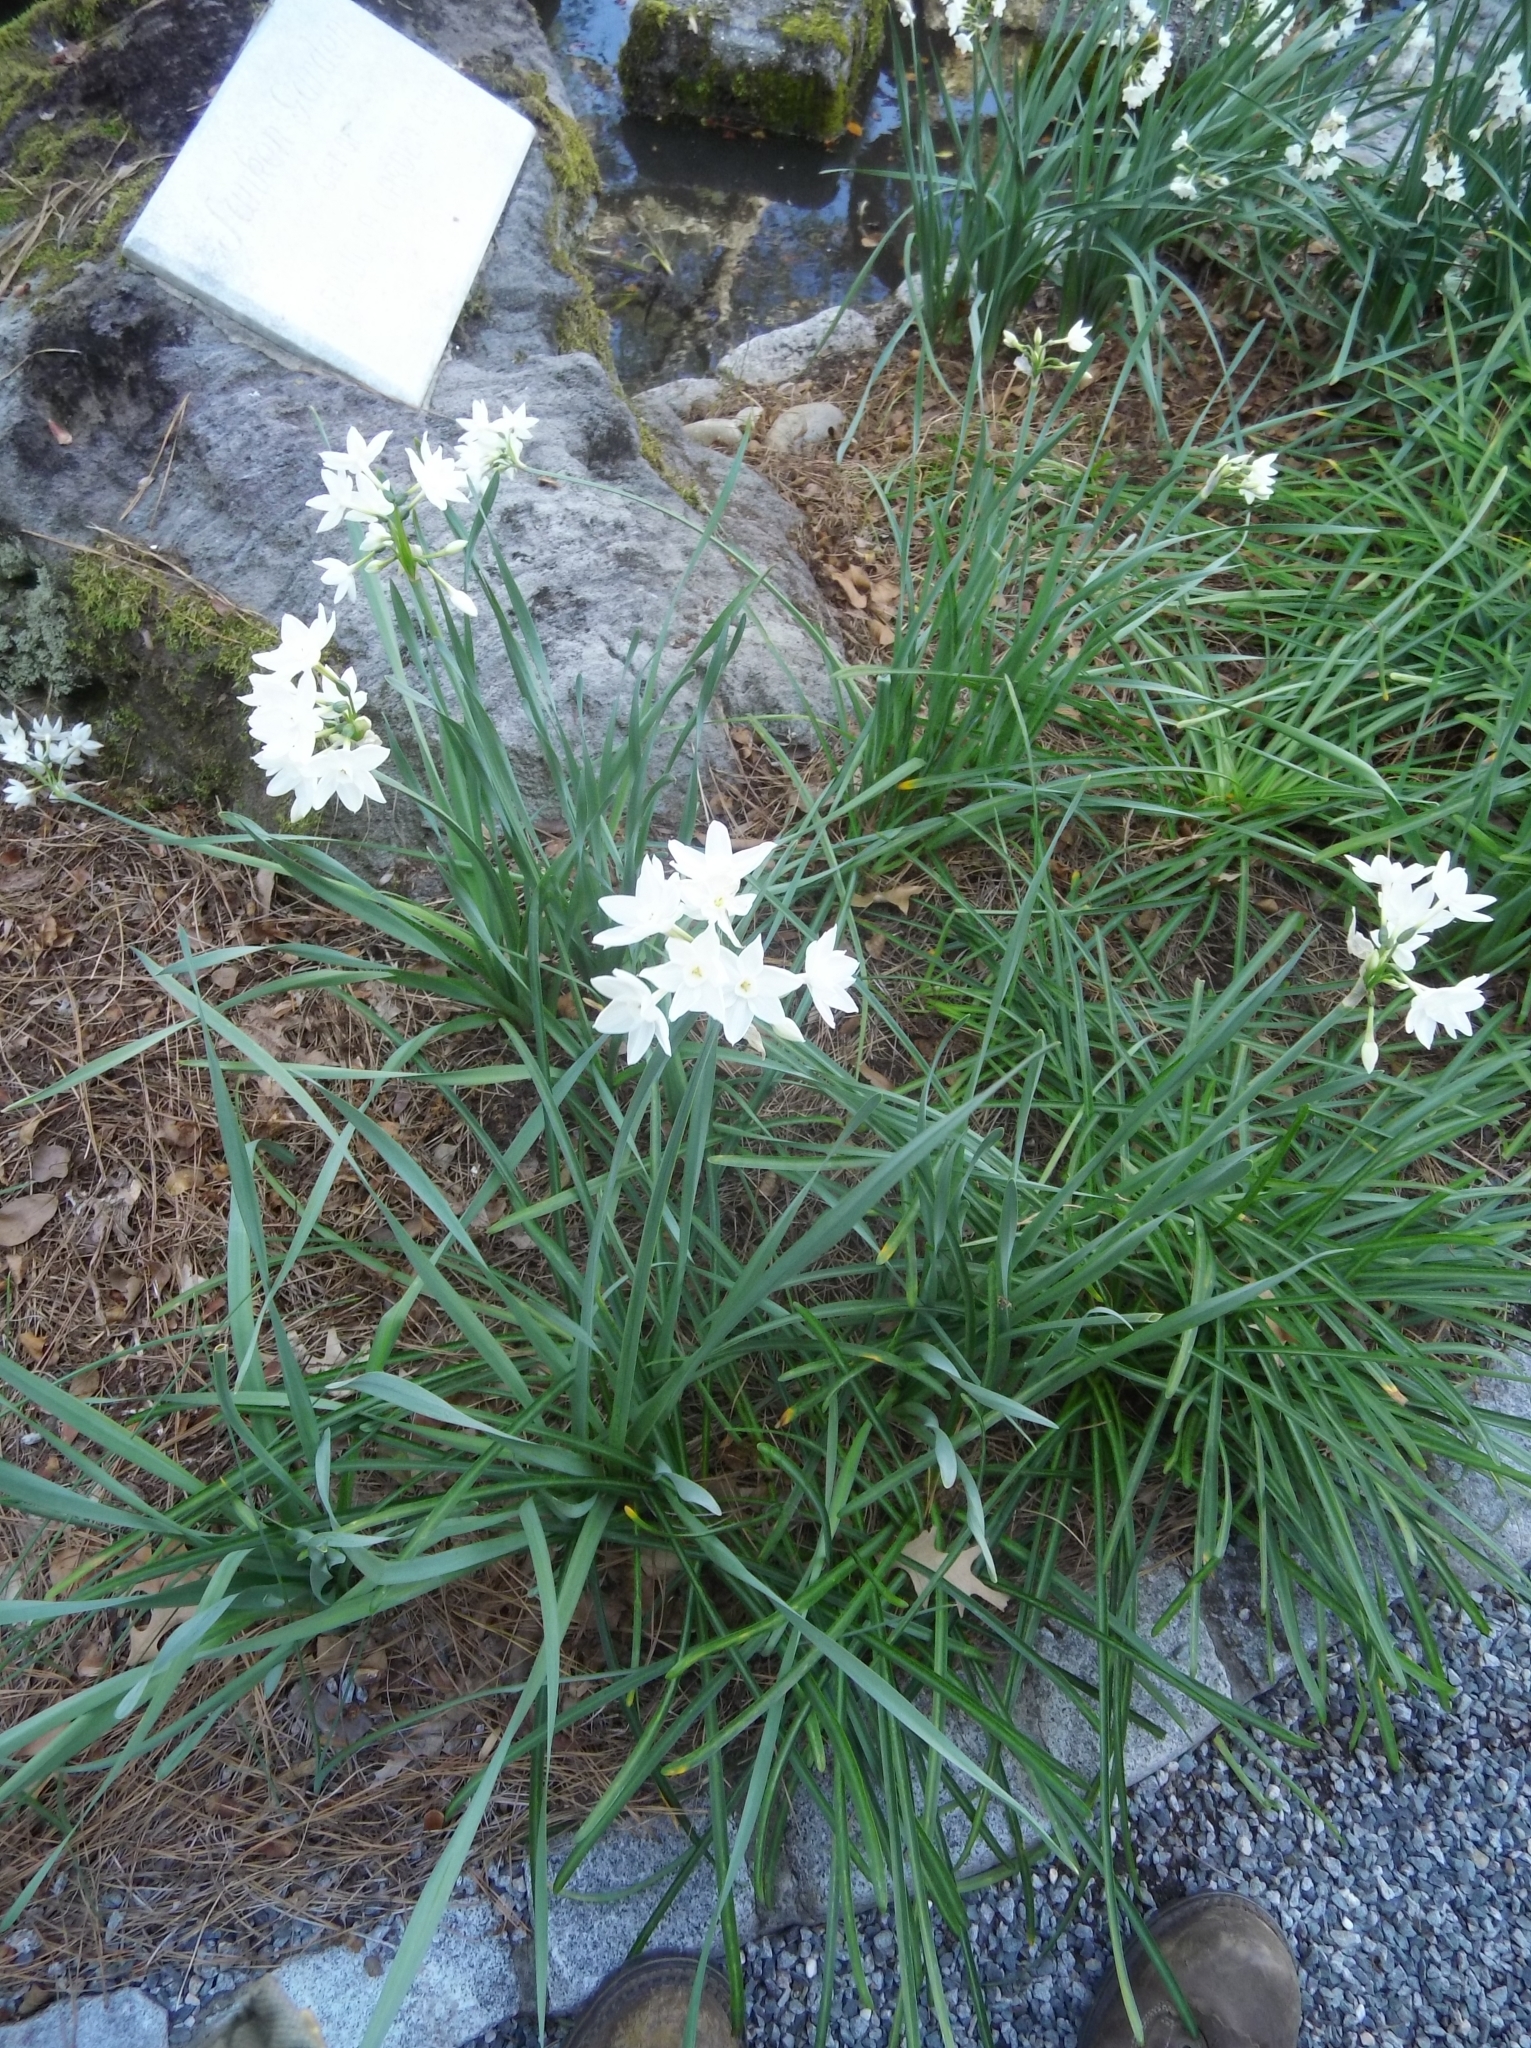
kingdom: Plantae
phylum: Tracheophyta
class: Liliopsida
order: Asparagales
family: Amaryllidaceae
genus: Narcissus
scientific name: Narcissus papyraceus
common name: Paper-white daffodil
